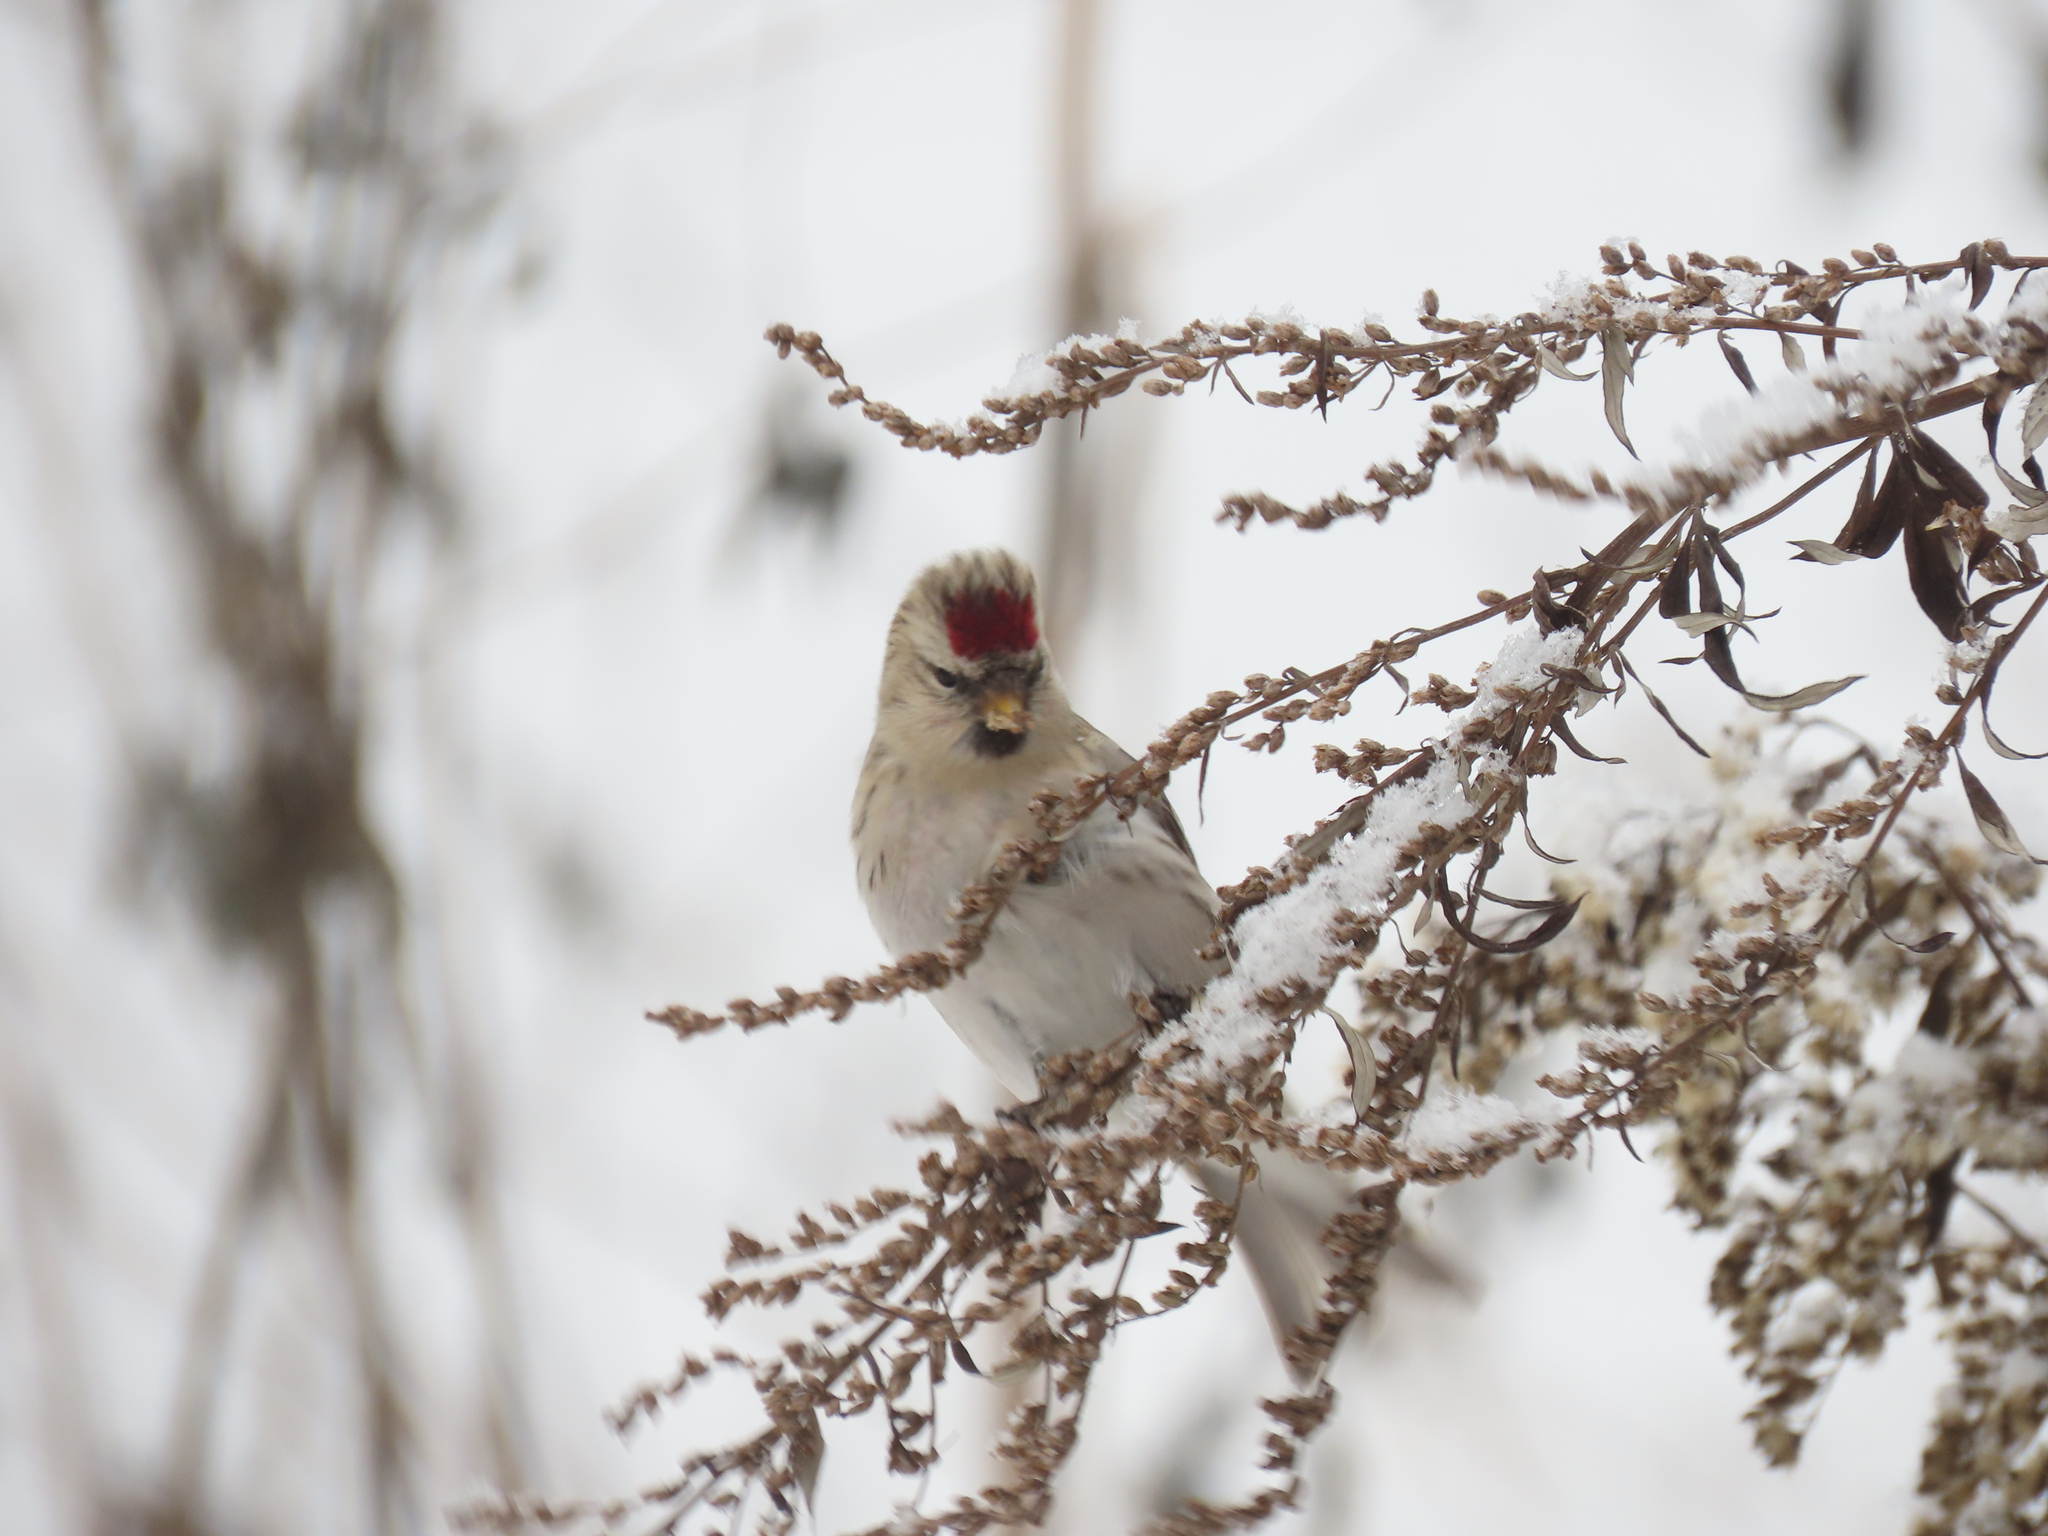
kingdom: Animalia
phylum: Chordata
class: Aves
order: Passeriformes
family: Fringillidae
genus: Acanthis
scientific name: Acanthis flammea
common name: Common redpoll
